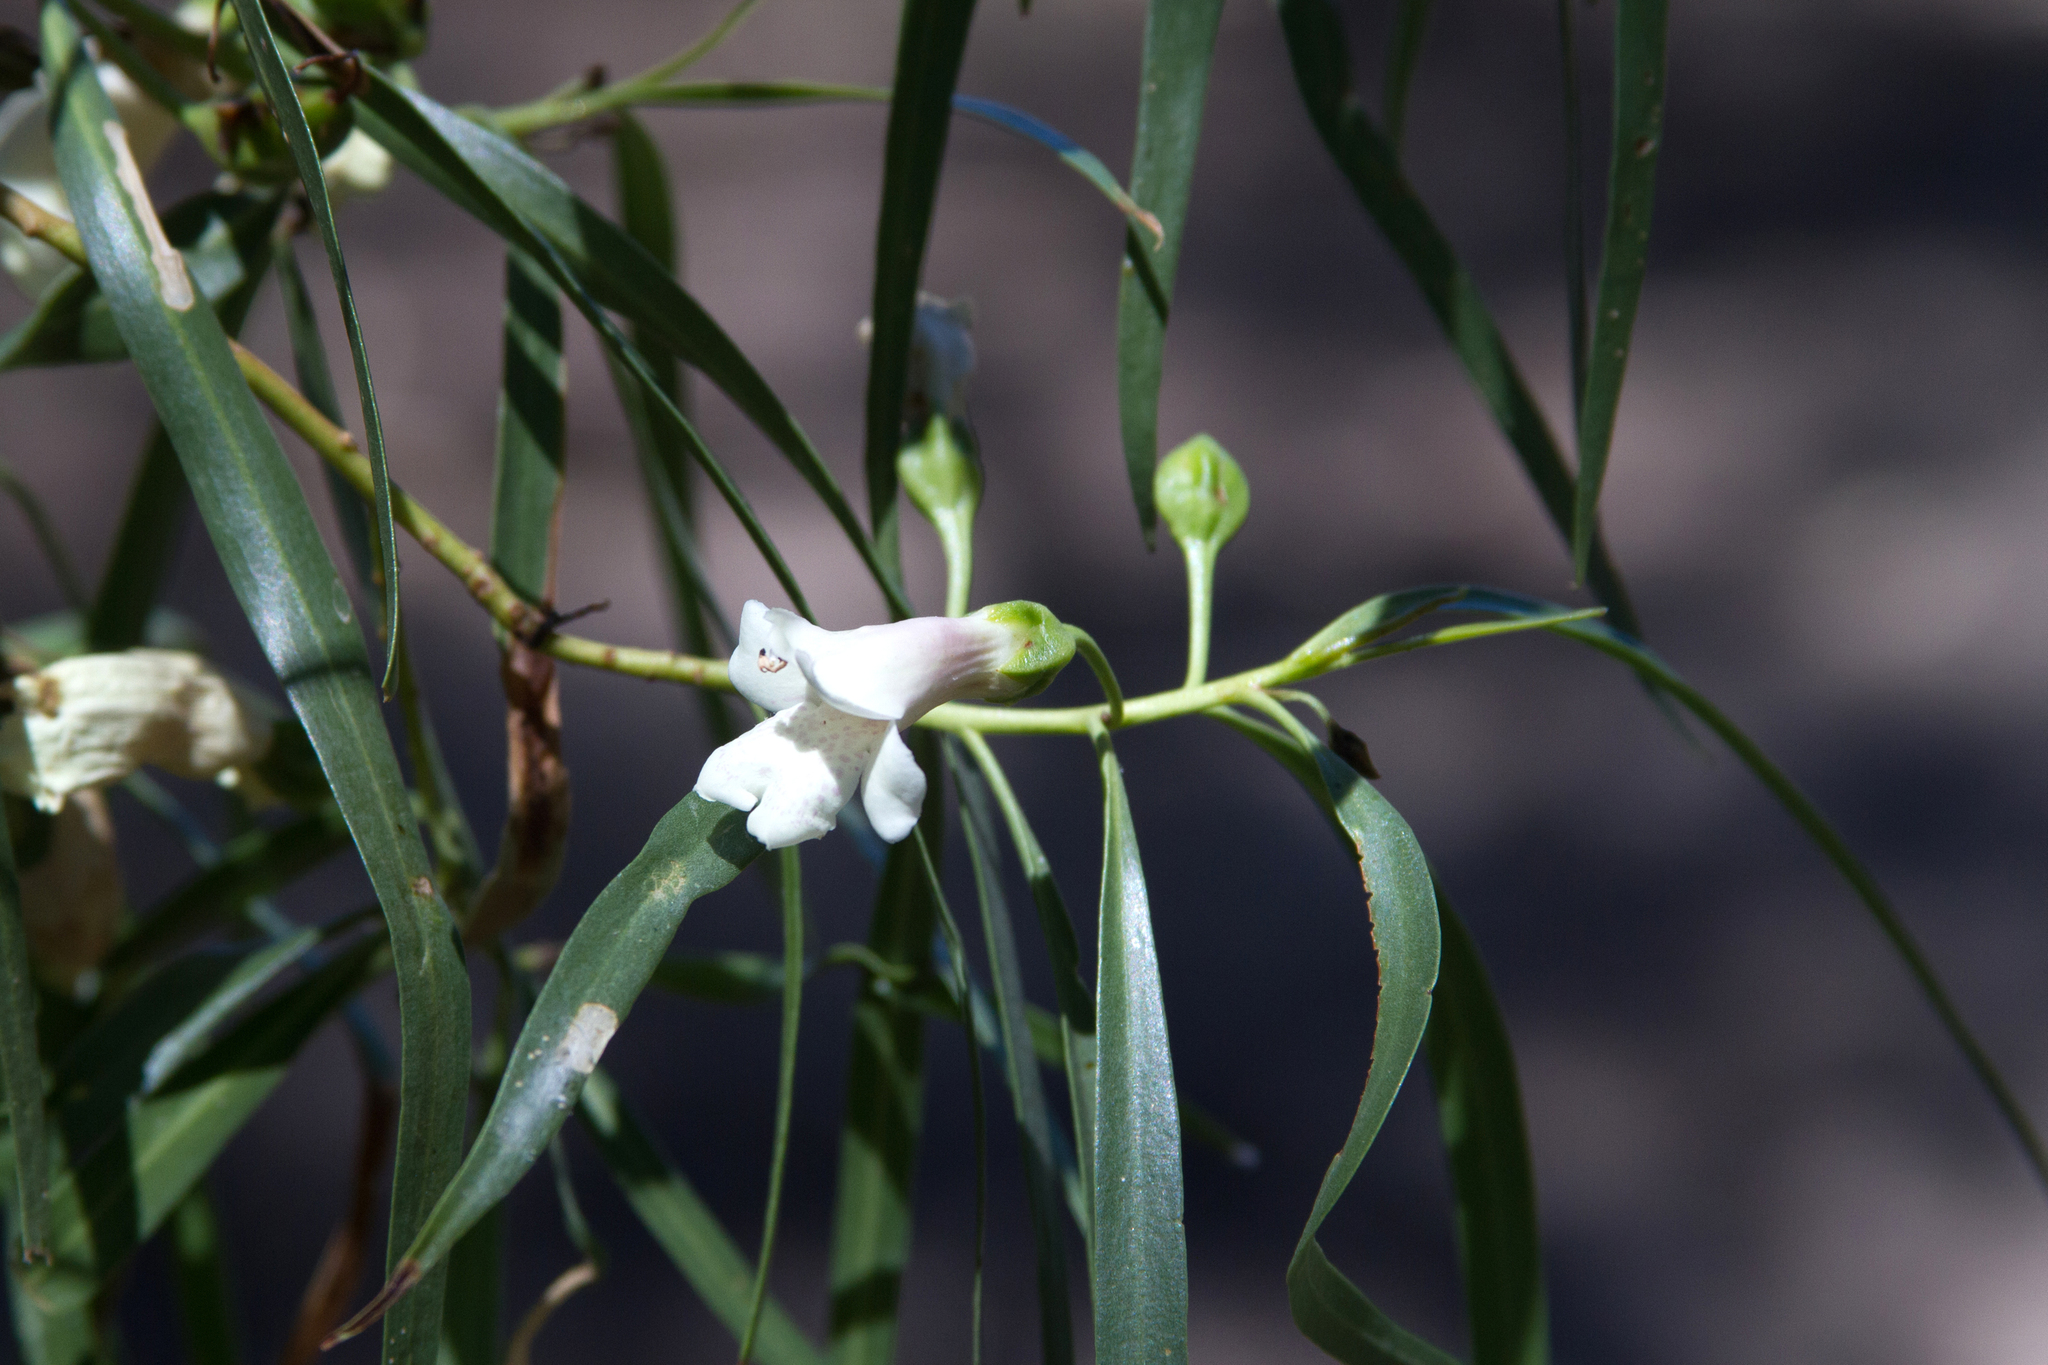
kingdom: Plantae
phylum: Tracheophyta
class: Magnoliopsida
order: Lamiales
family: Scrophulariaceae
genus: Eremophila
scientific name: Eremophila bignoniiflora
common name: Bignonia emu-bush
